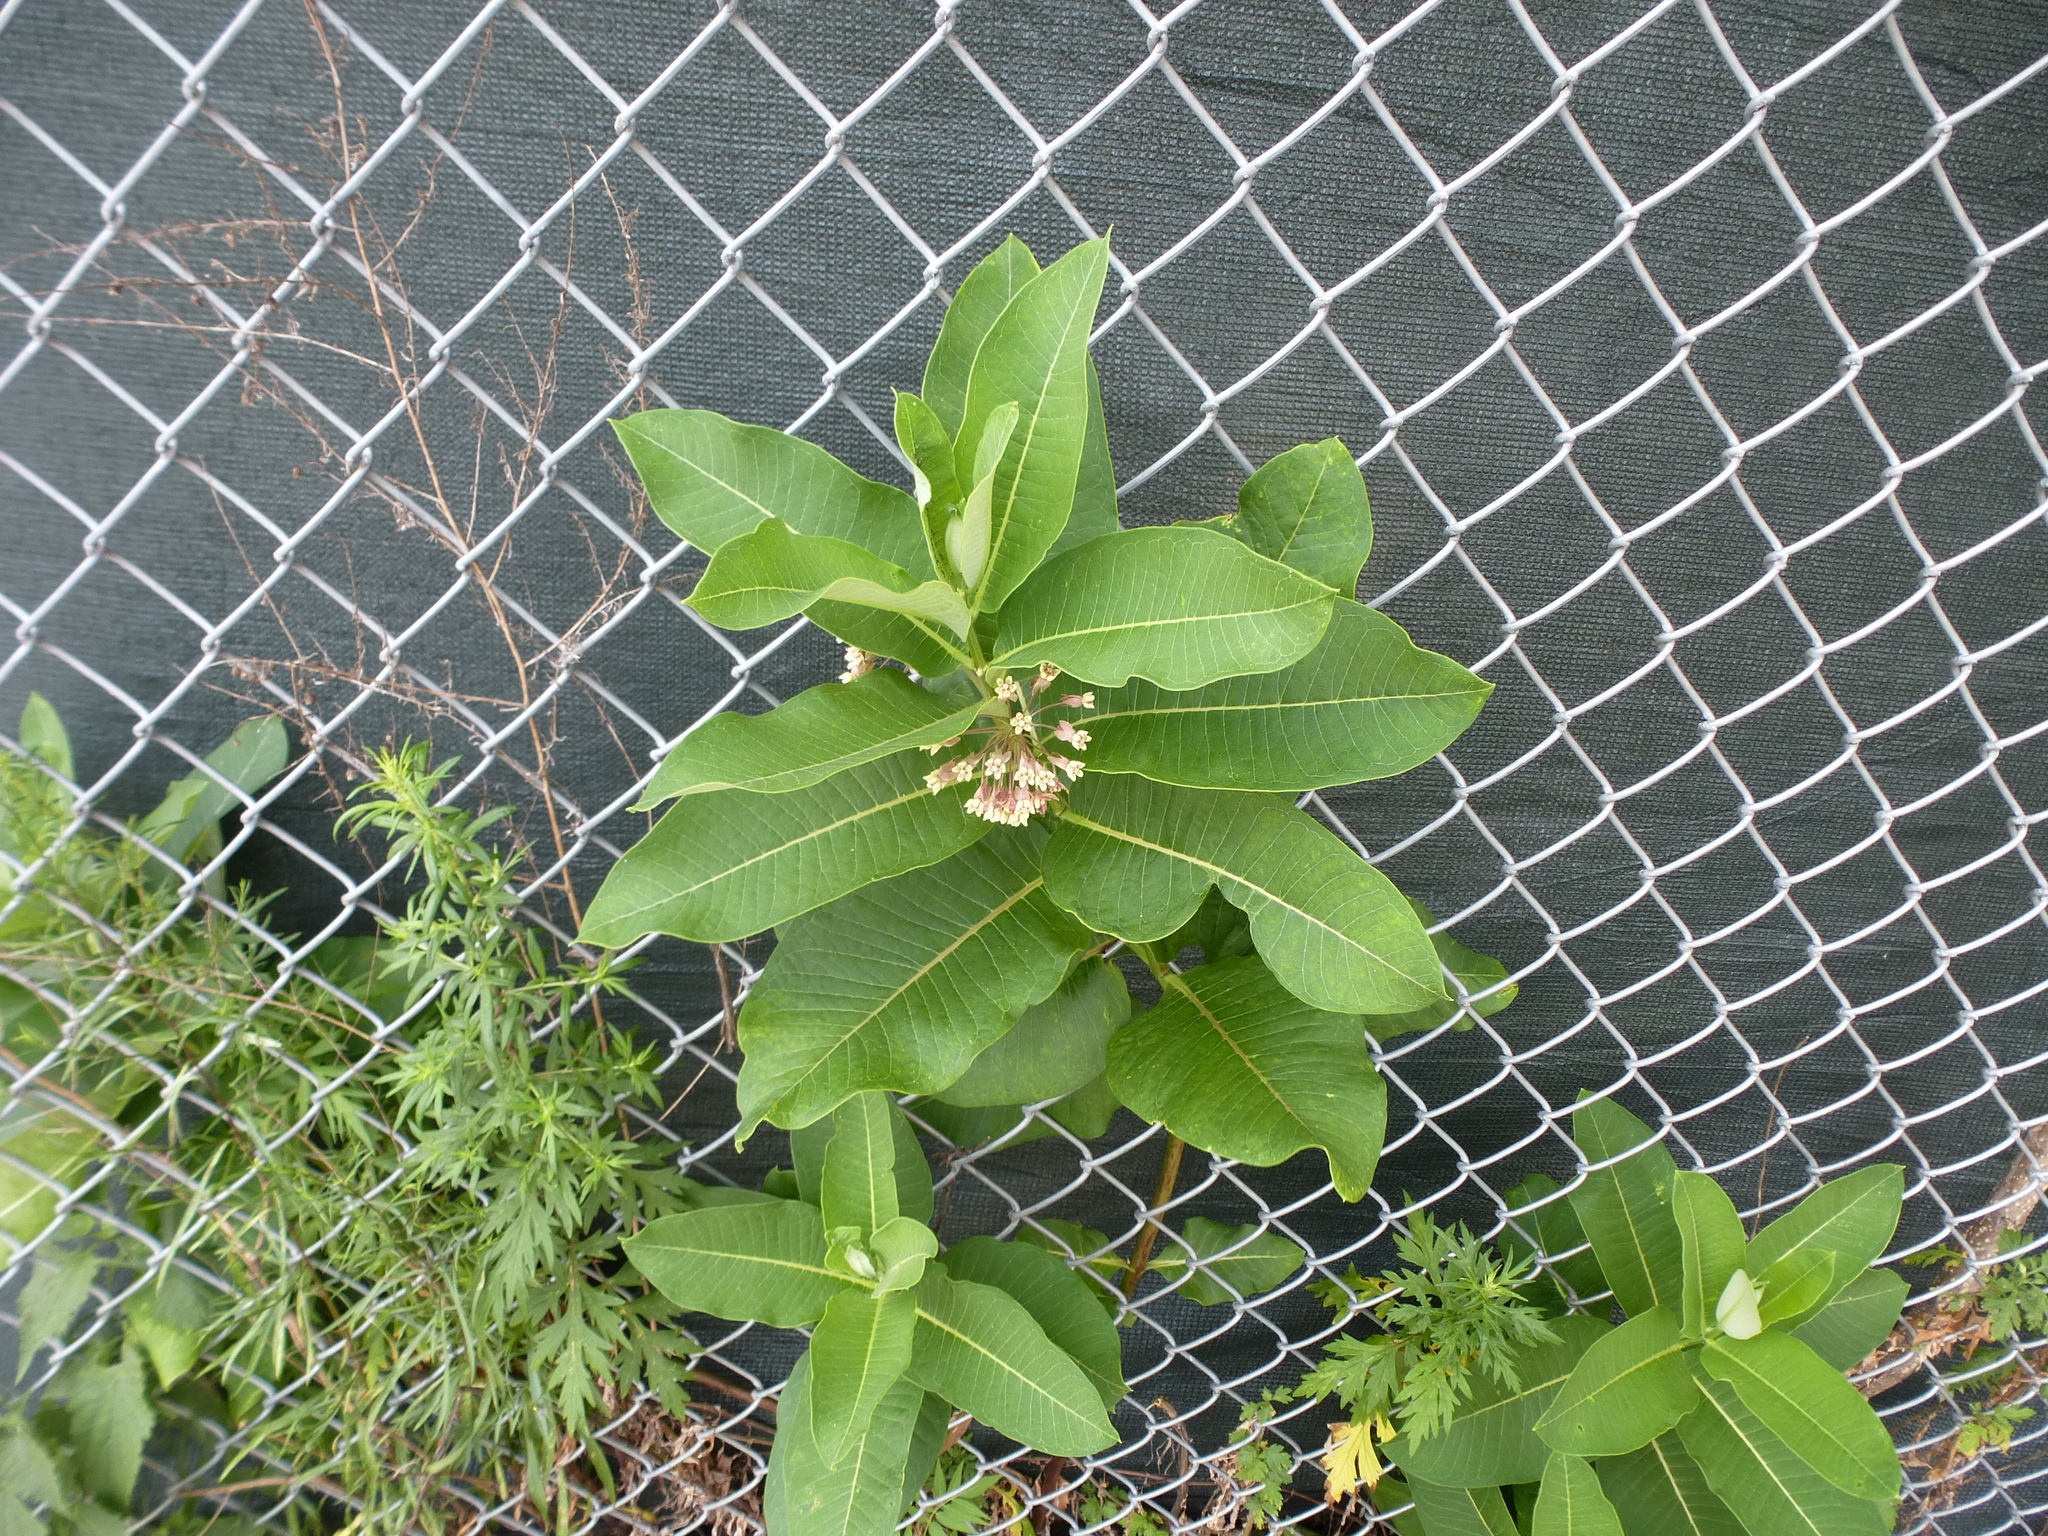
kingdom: Plantae
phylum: Tracheophyta
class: Magnoliopsida
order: Gentianales
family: Apocynaceae
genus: Asclepias
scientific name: Asclepias syriaca
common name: Common milkweed
